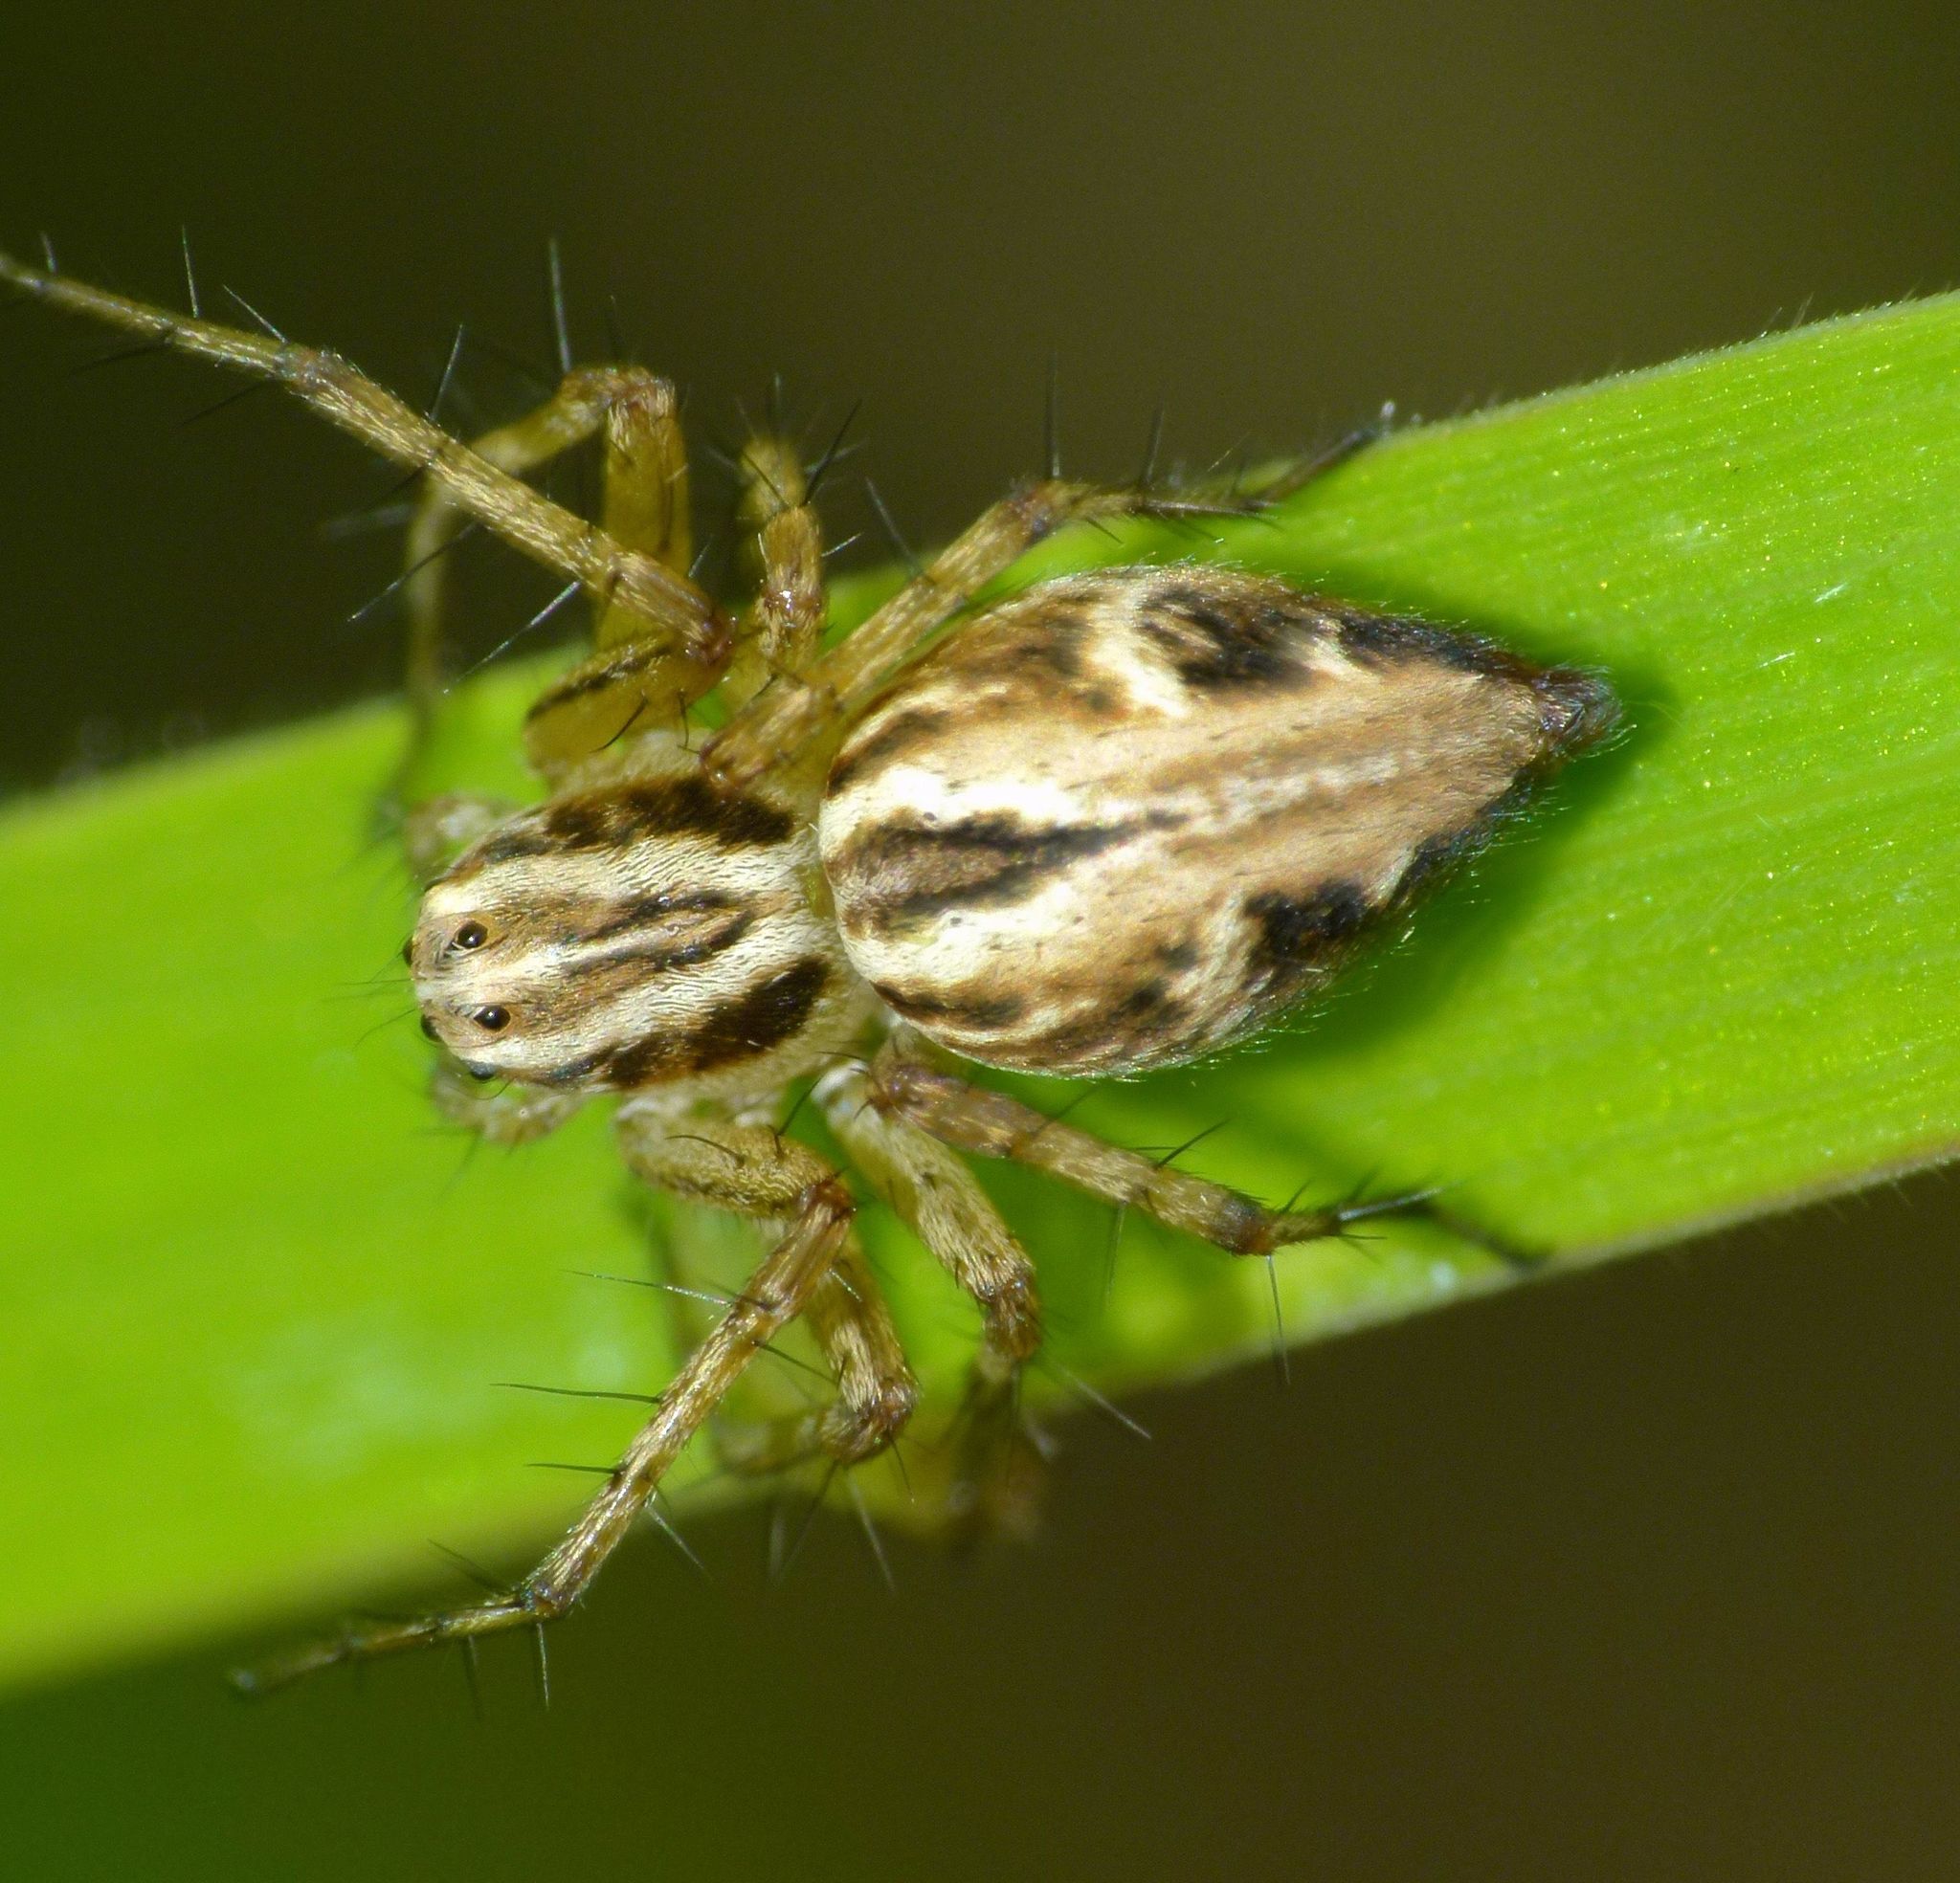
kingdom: Animalia
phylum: Arthropoda
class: Arachnida
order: Araneae
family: Oxyopidae
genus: Oxyopes
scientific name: Oxyopes gracilipes
